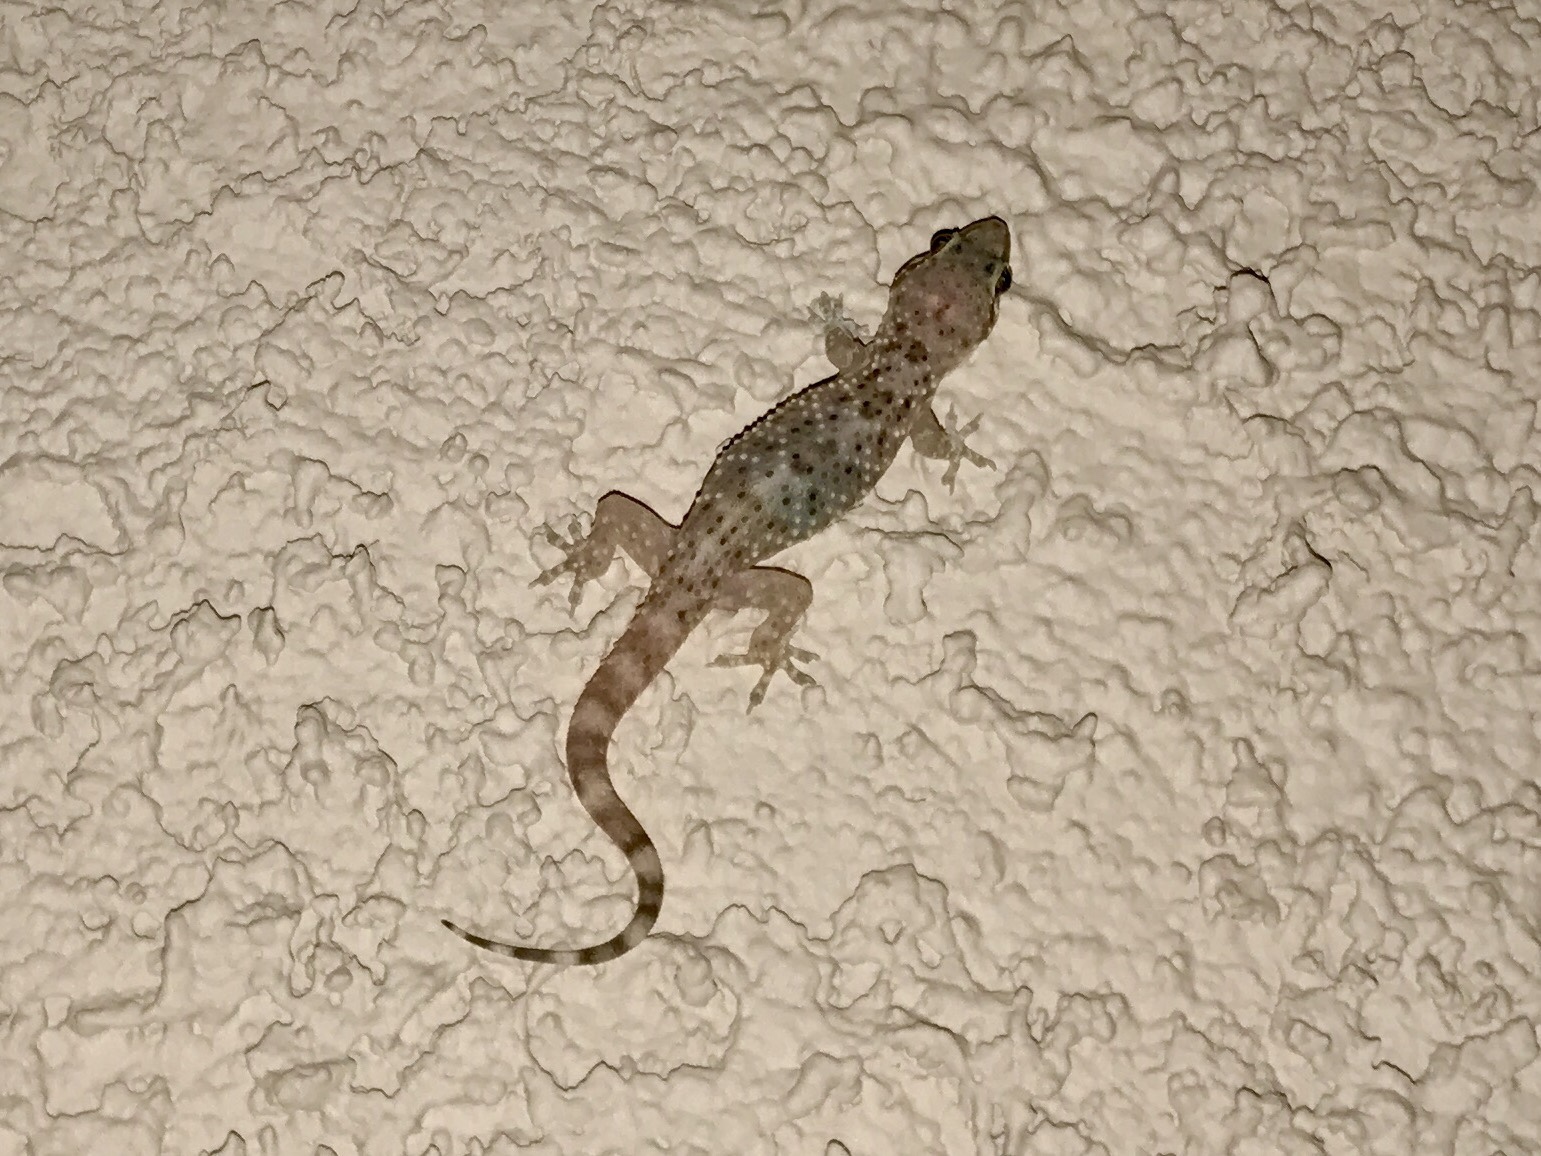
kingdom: Animalia
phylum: Chordata
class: Squamata
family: Gekkonidae
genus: Hemidactylus
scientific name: Hemidactylus turcicus
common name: Turkish gecko
